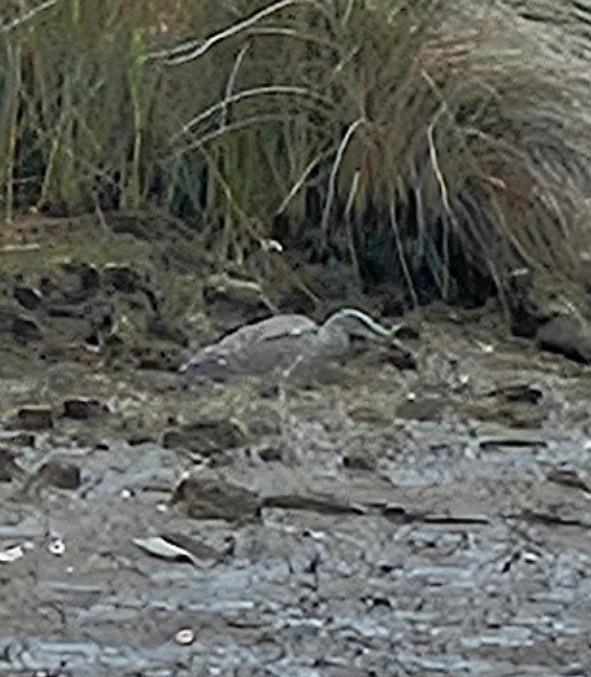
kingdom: Animalia
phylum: Chordata
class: Aves
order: Pelecaniformes
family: Ardeidae
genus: Nyctanassa
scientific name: Nyctanassa violacea
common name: Yellow-crowned night heron
